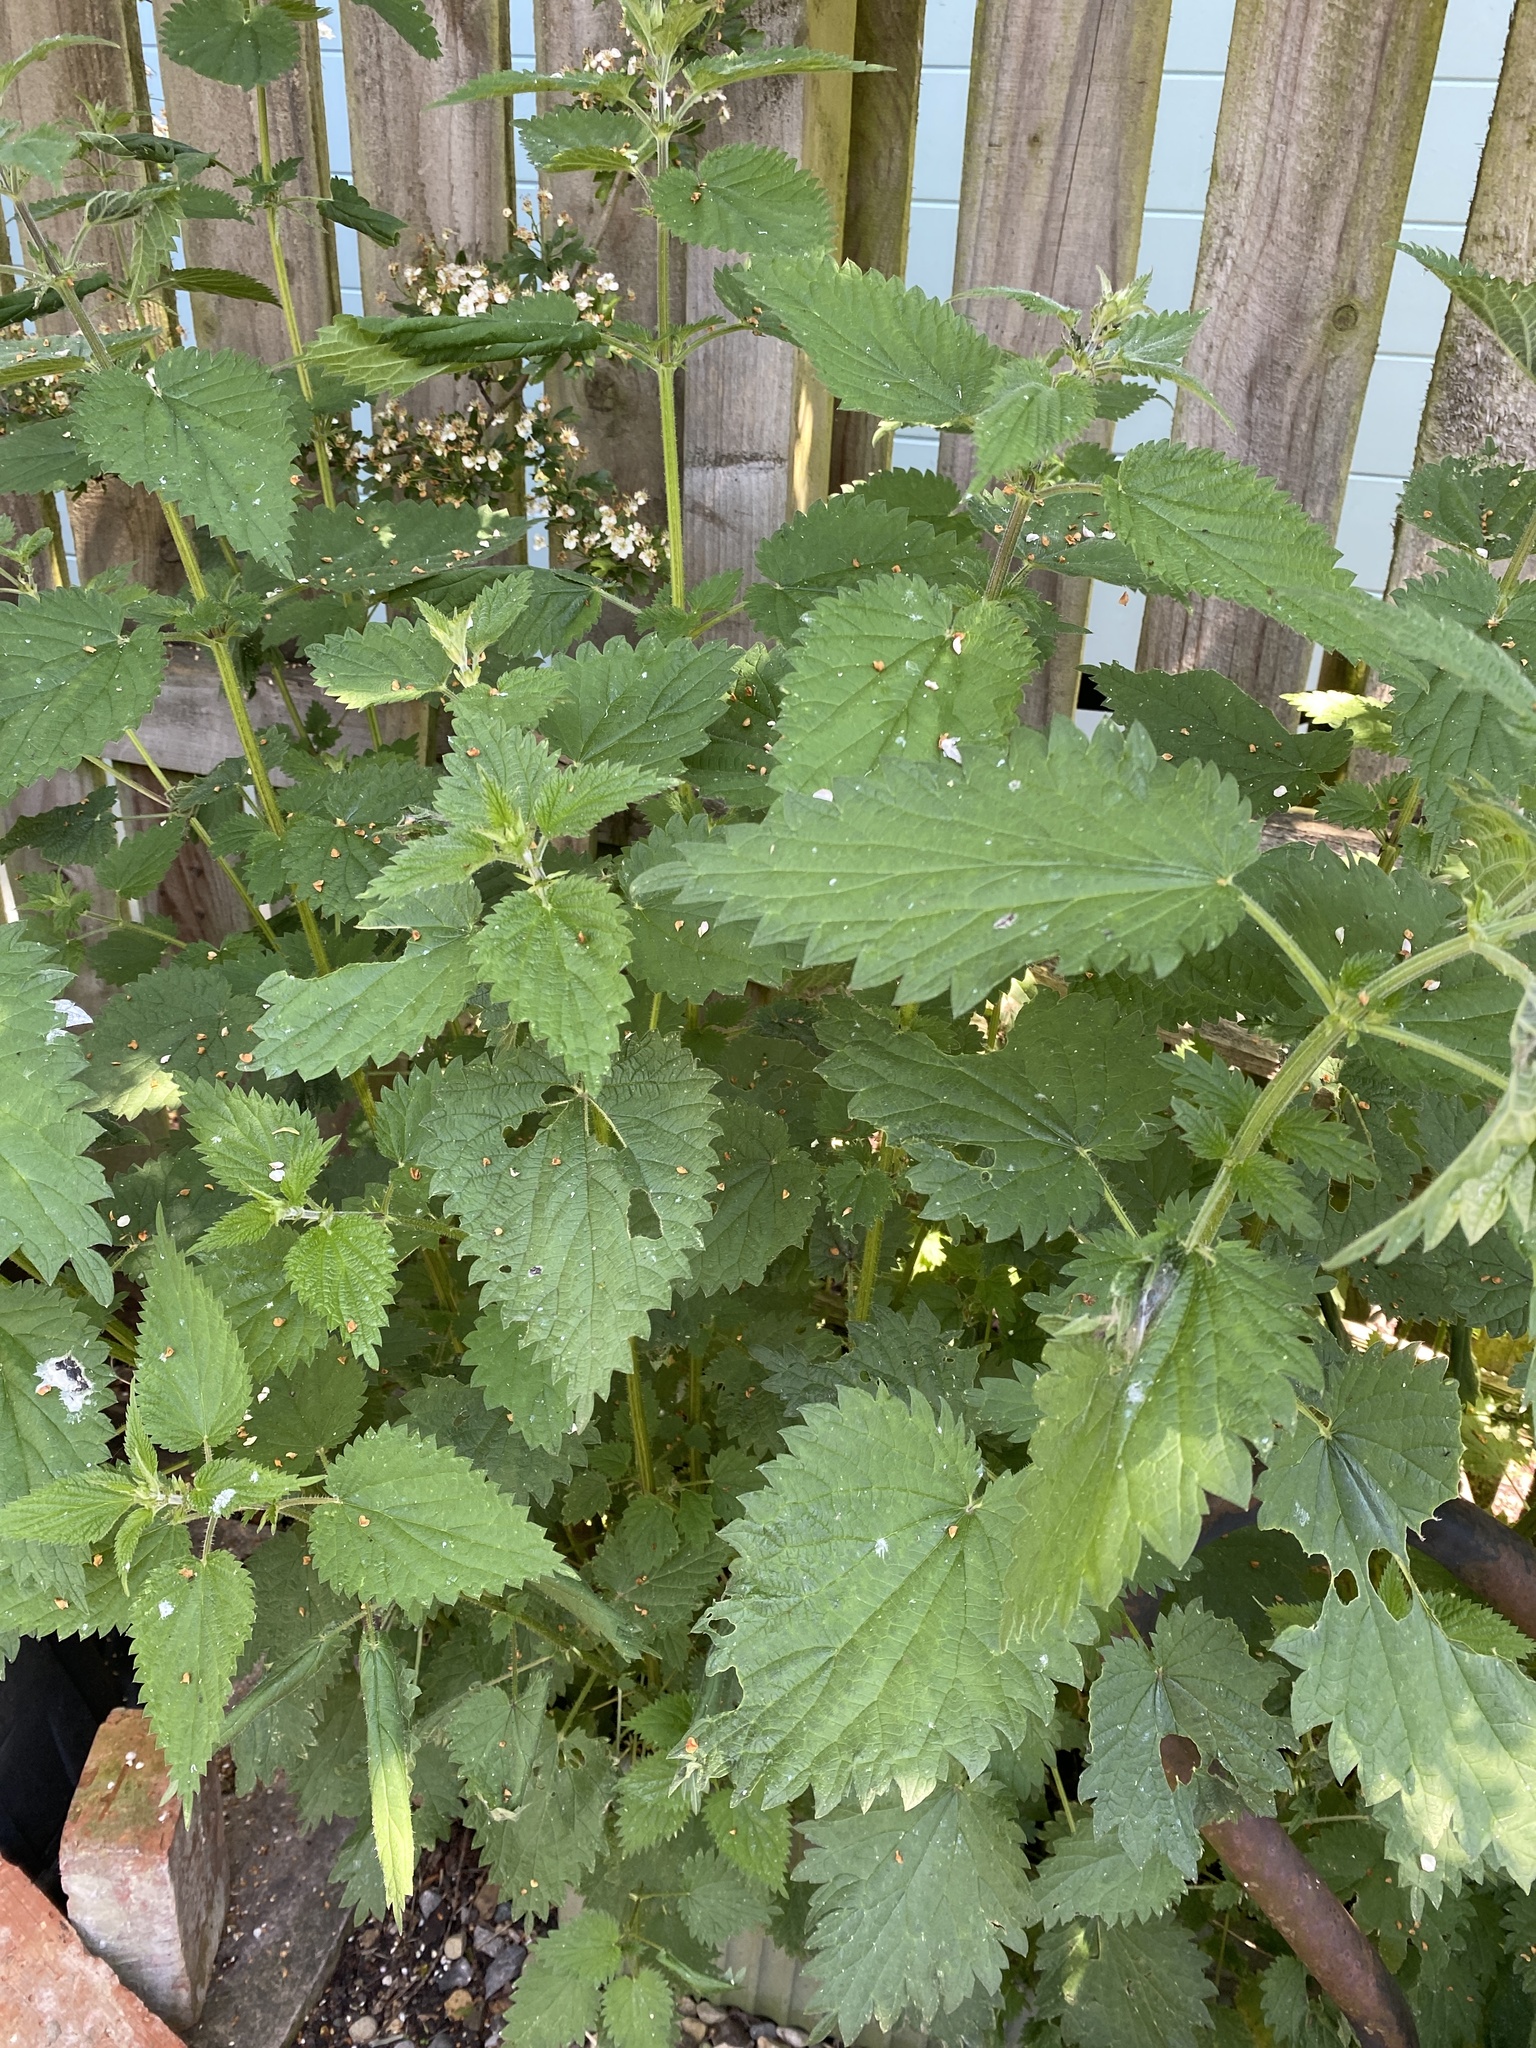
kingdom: Plantae
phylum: Tracheophyta
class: Magnoliopsida
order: Rosales
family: Urticaceae
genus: Urtica
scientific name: Urtica dioica
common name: Common nettle
